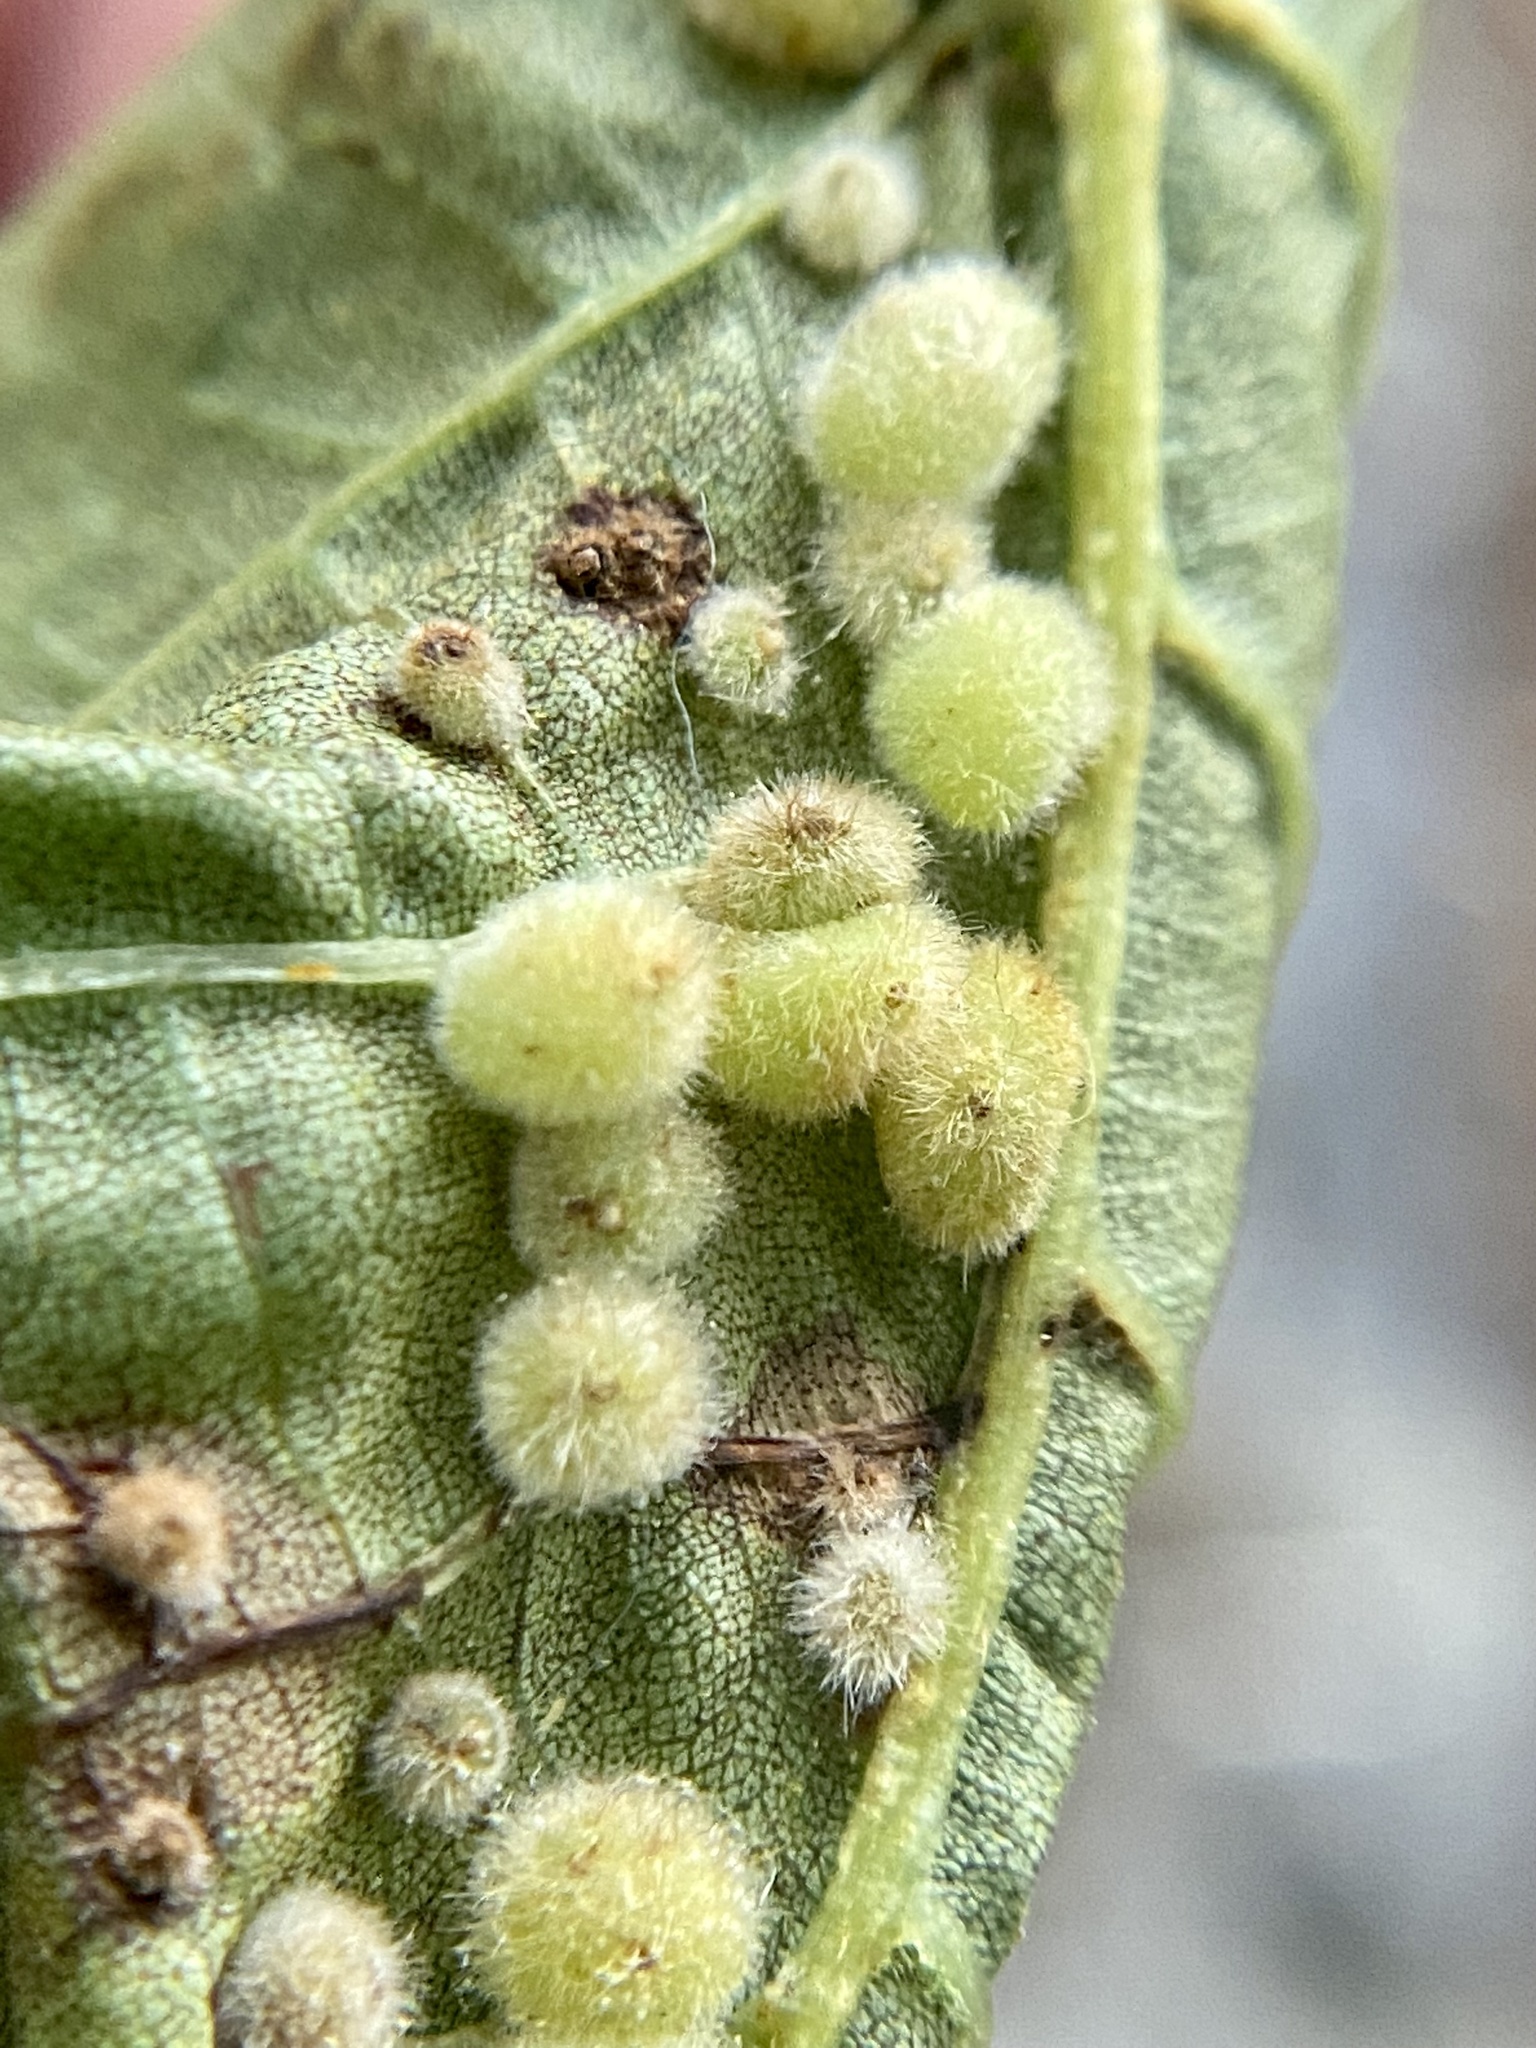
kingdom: Animalia
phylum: Arthropoda
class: Insecta
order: Diptera
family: Cecidomyiidae
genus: Caryomyia
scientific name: Caryomyia hirtiglobus
